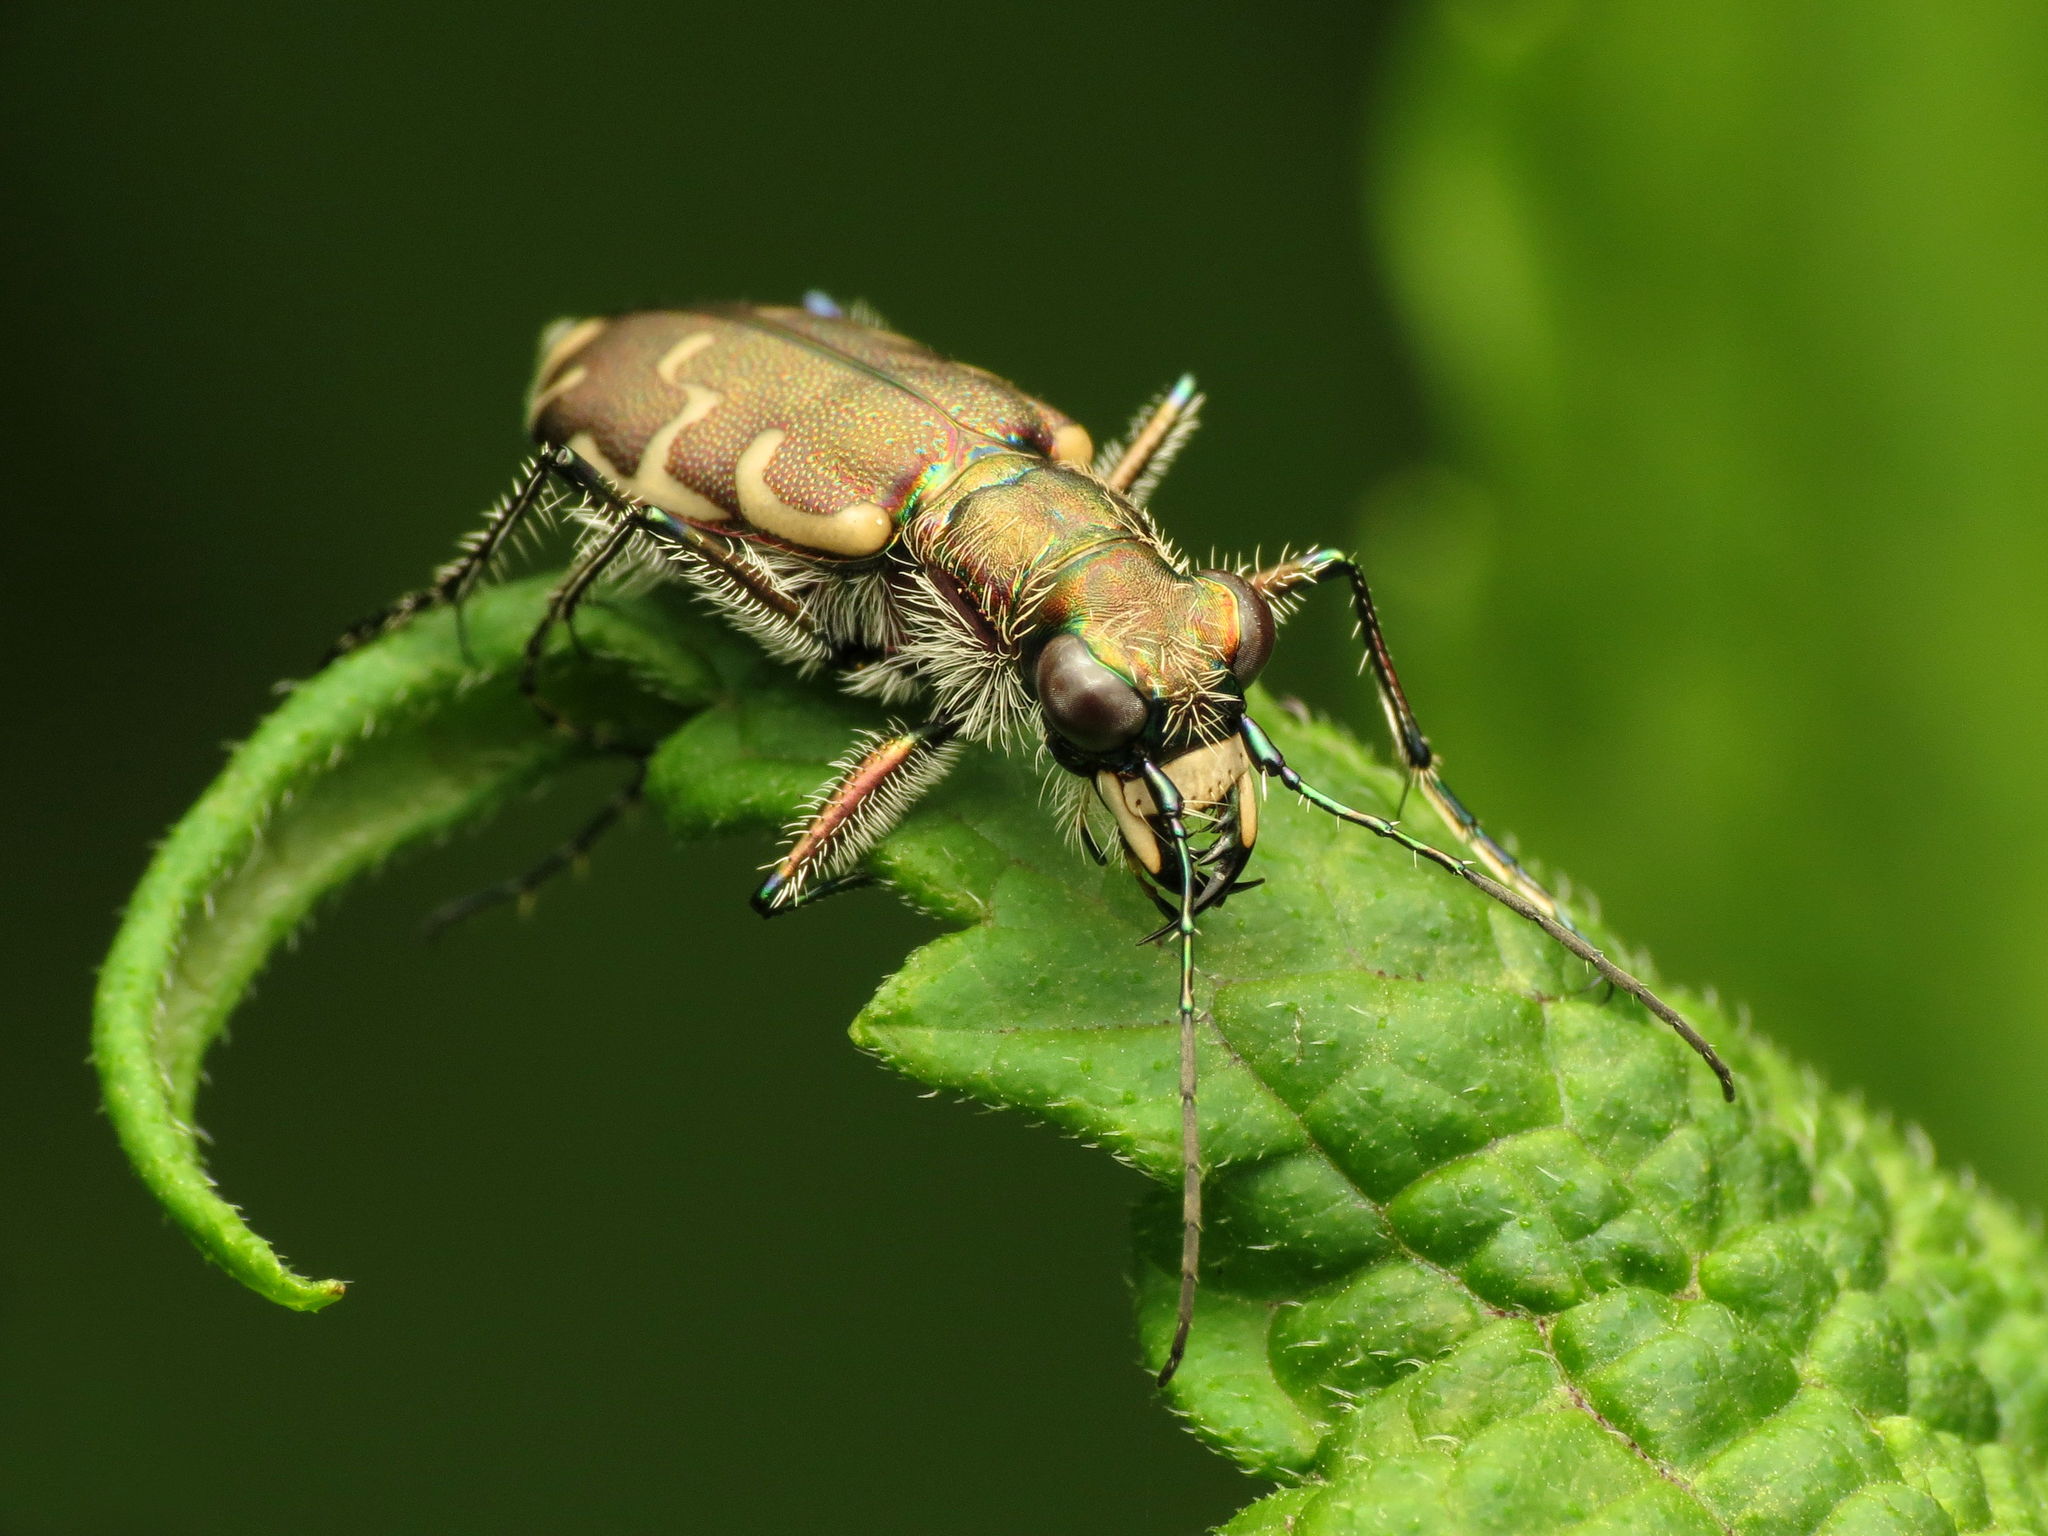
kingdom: Animalia
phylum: Arthropoda
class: Insecta
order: Coleoptera
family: Carabidae
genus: Cicindela
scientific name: Cicindela repanda
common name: Bronzed tiger beetle
